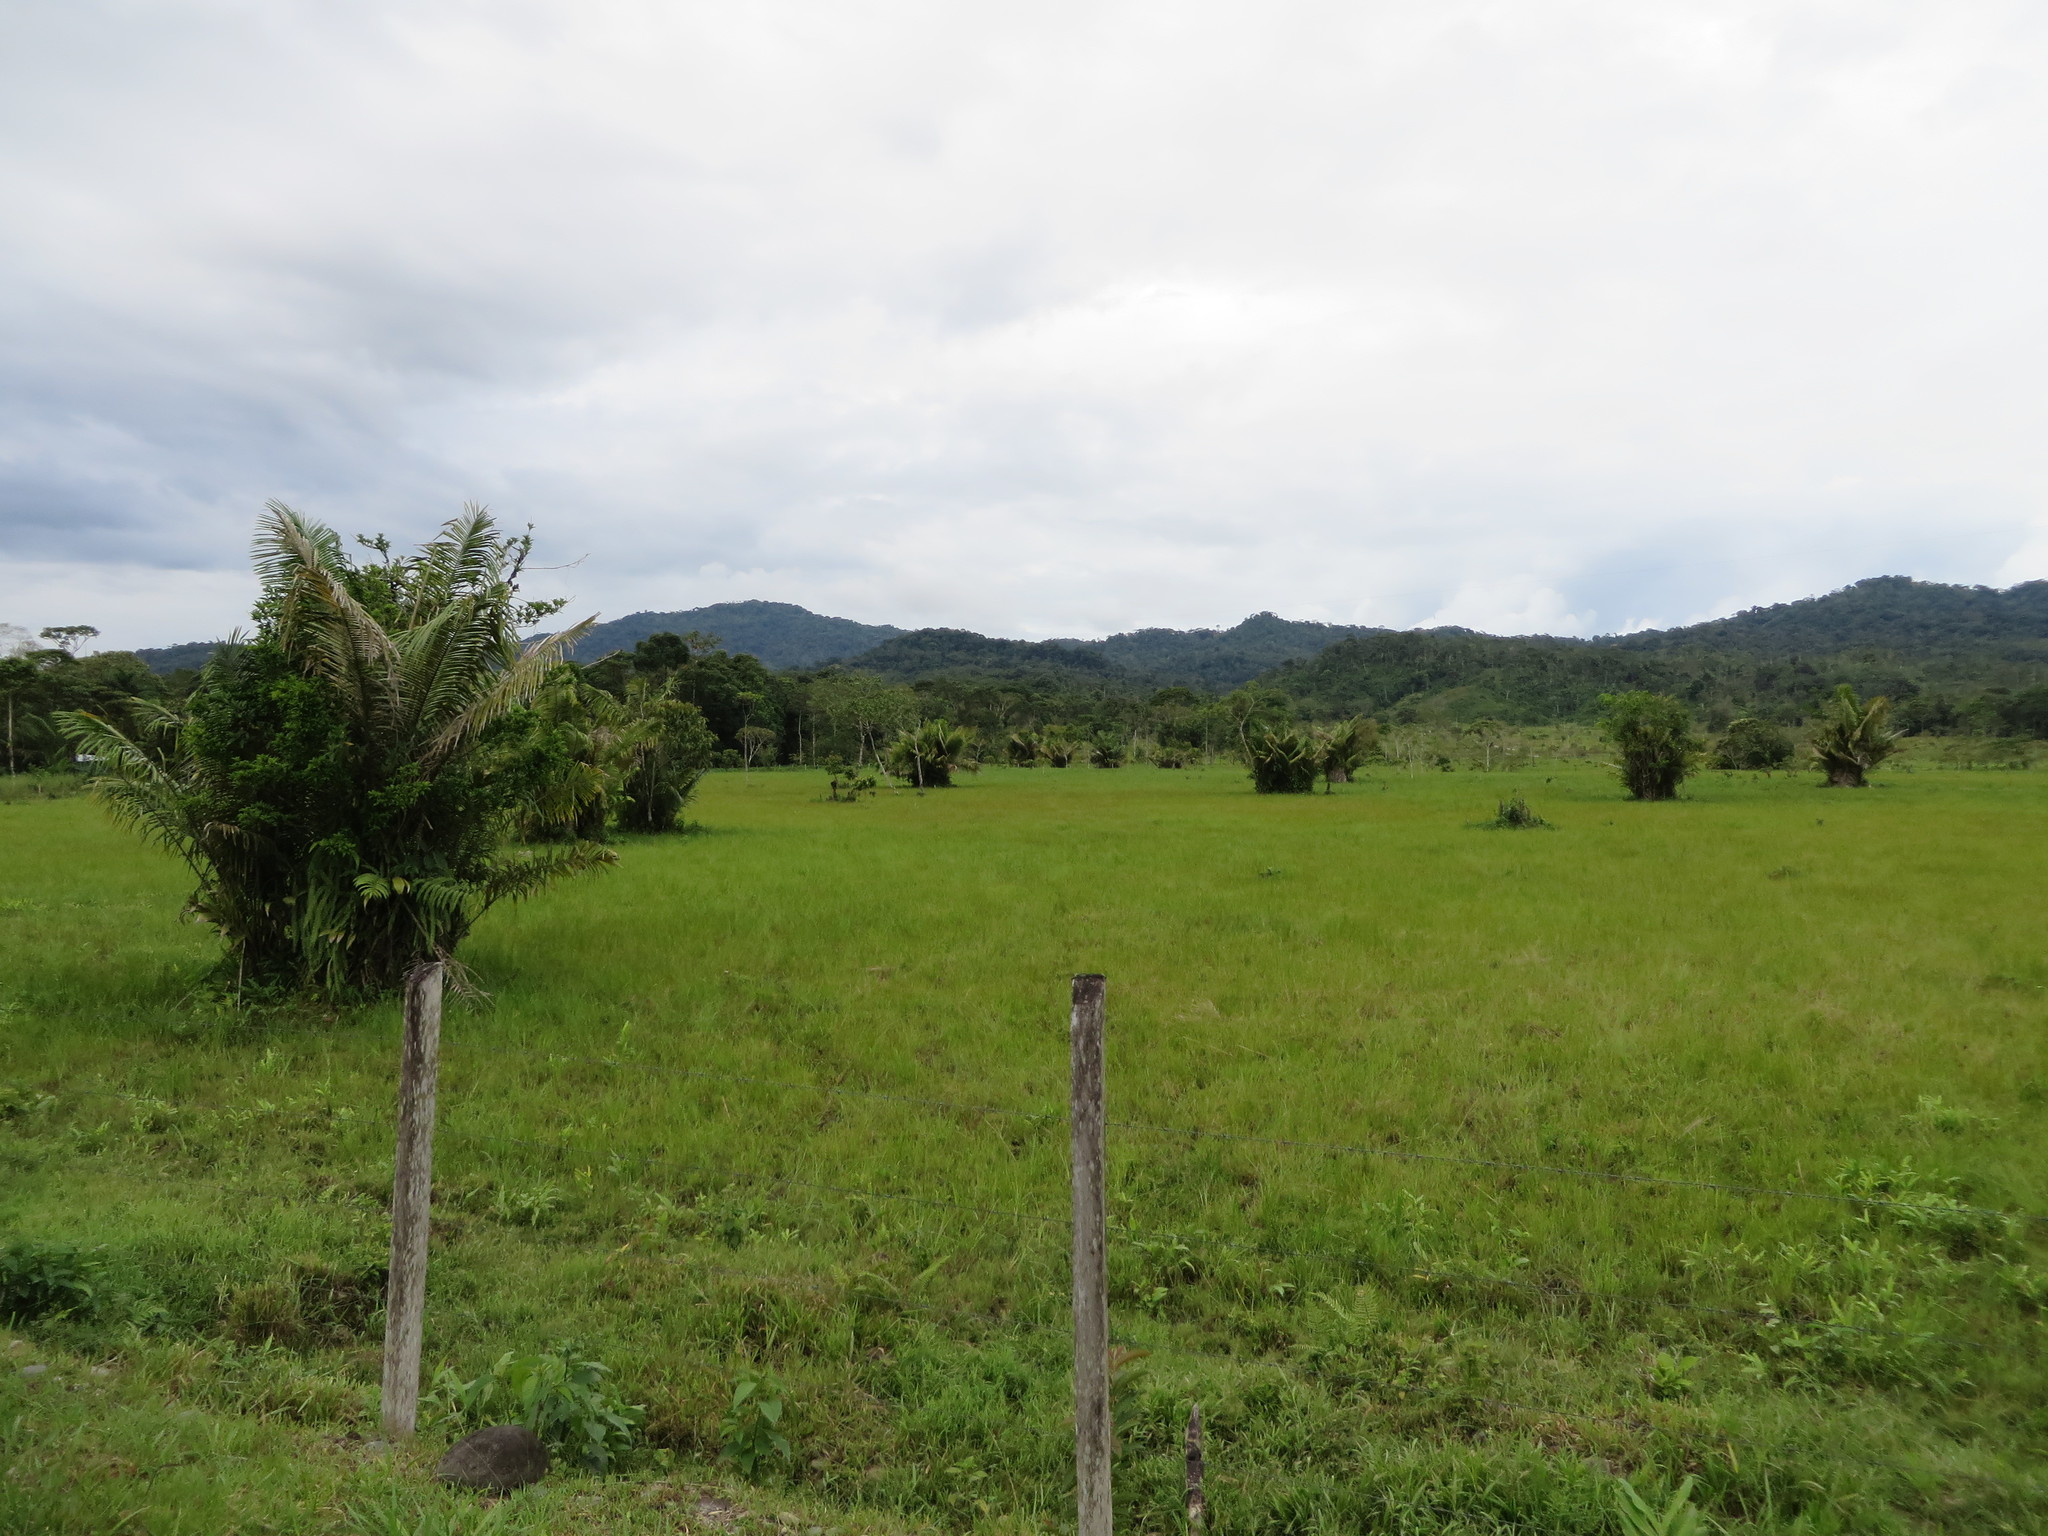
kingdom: Plantae
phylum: Tracheophyta
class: Liliopsida
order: Arecales
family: Arecaceae
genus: Astrocaryum
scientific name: Astrocaryum murumuru
